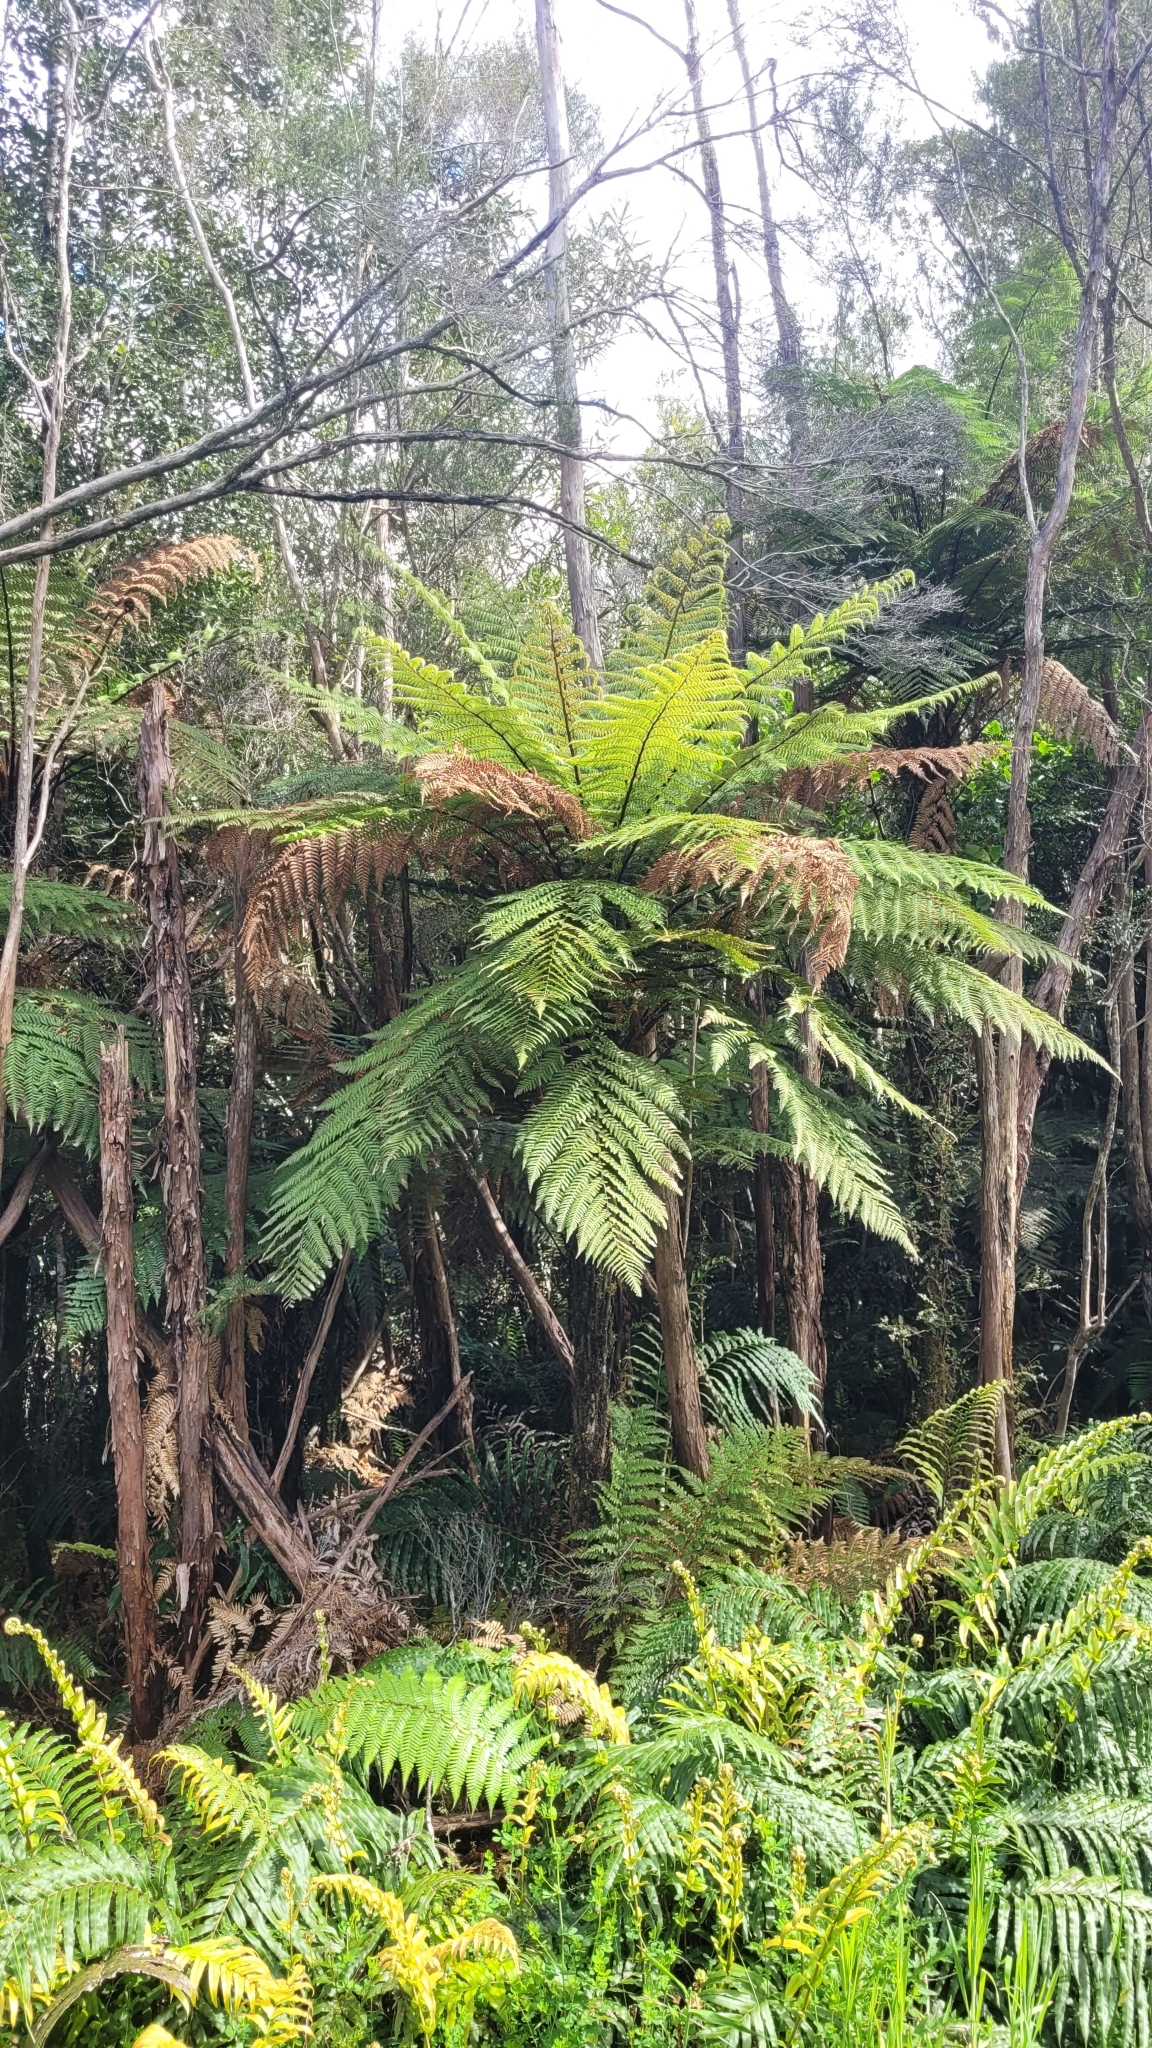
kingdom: Plantae
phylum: Tracheophyta
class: Polypodiopsida
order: Cyatheales
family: Dicksoniaceae
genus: Dicksonia
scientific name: Dicksonia squarrosa
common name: Hard treefern
